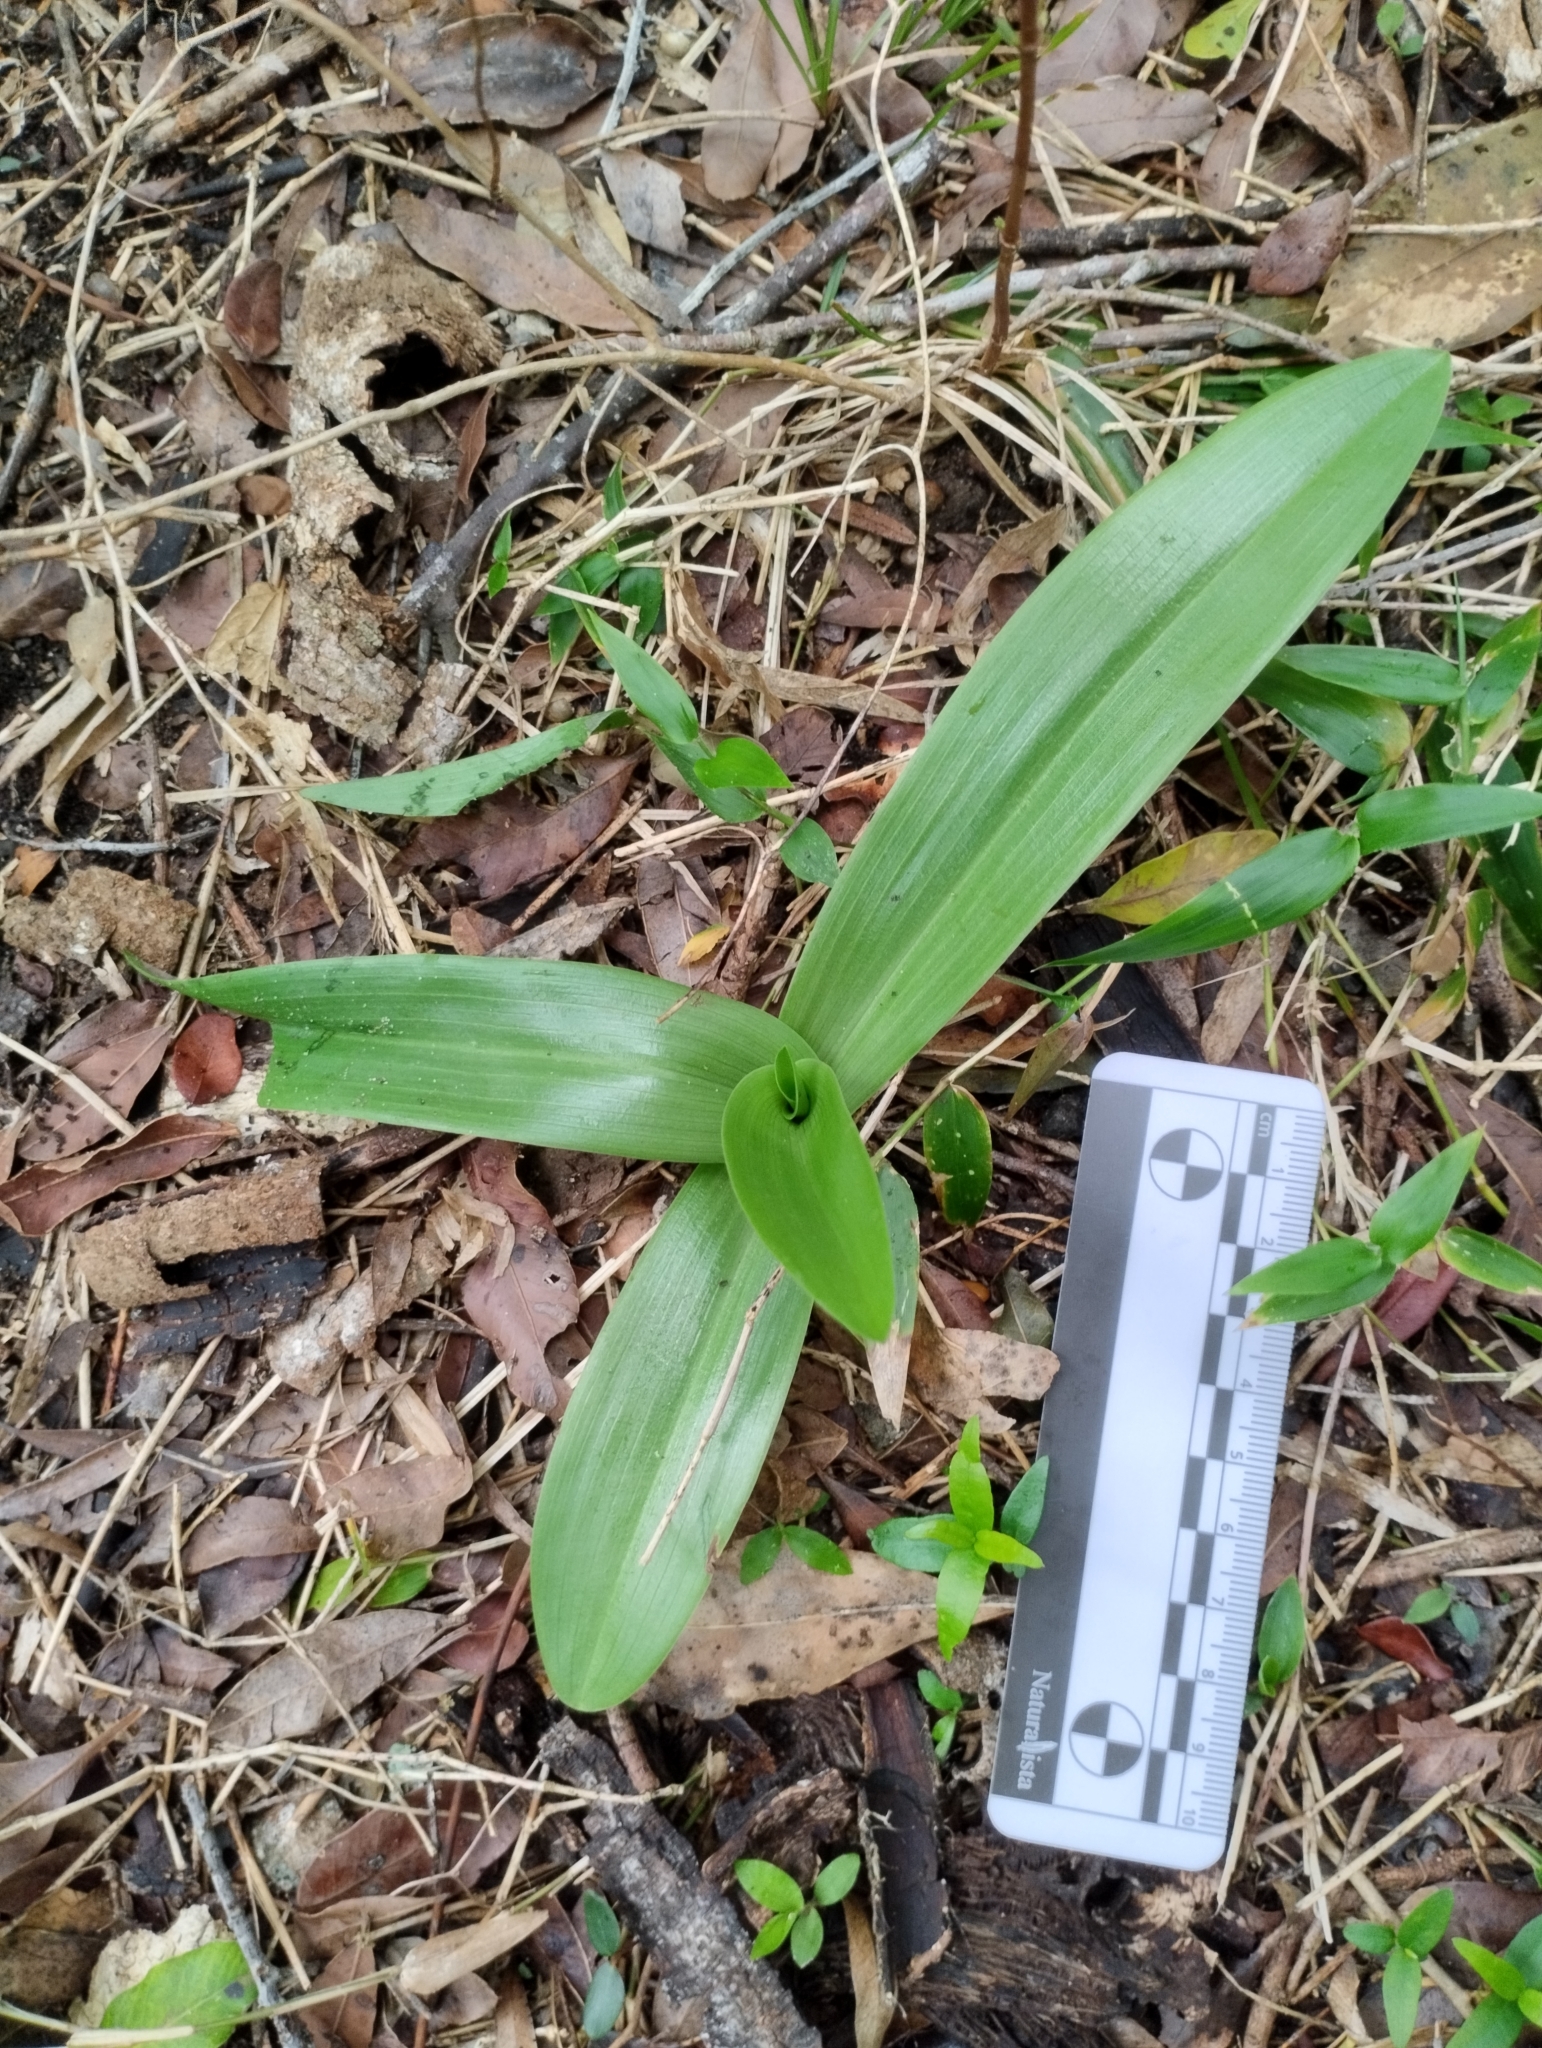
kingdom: Plantae
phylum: Tracheophyta
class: Liliopsida
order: Asparagales
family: Orchidaceae
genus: Chloraea
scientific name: Chloraea membranacea
